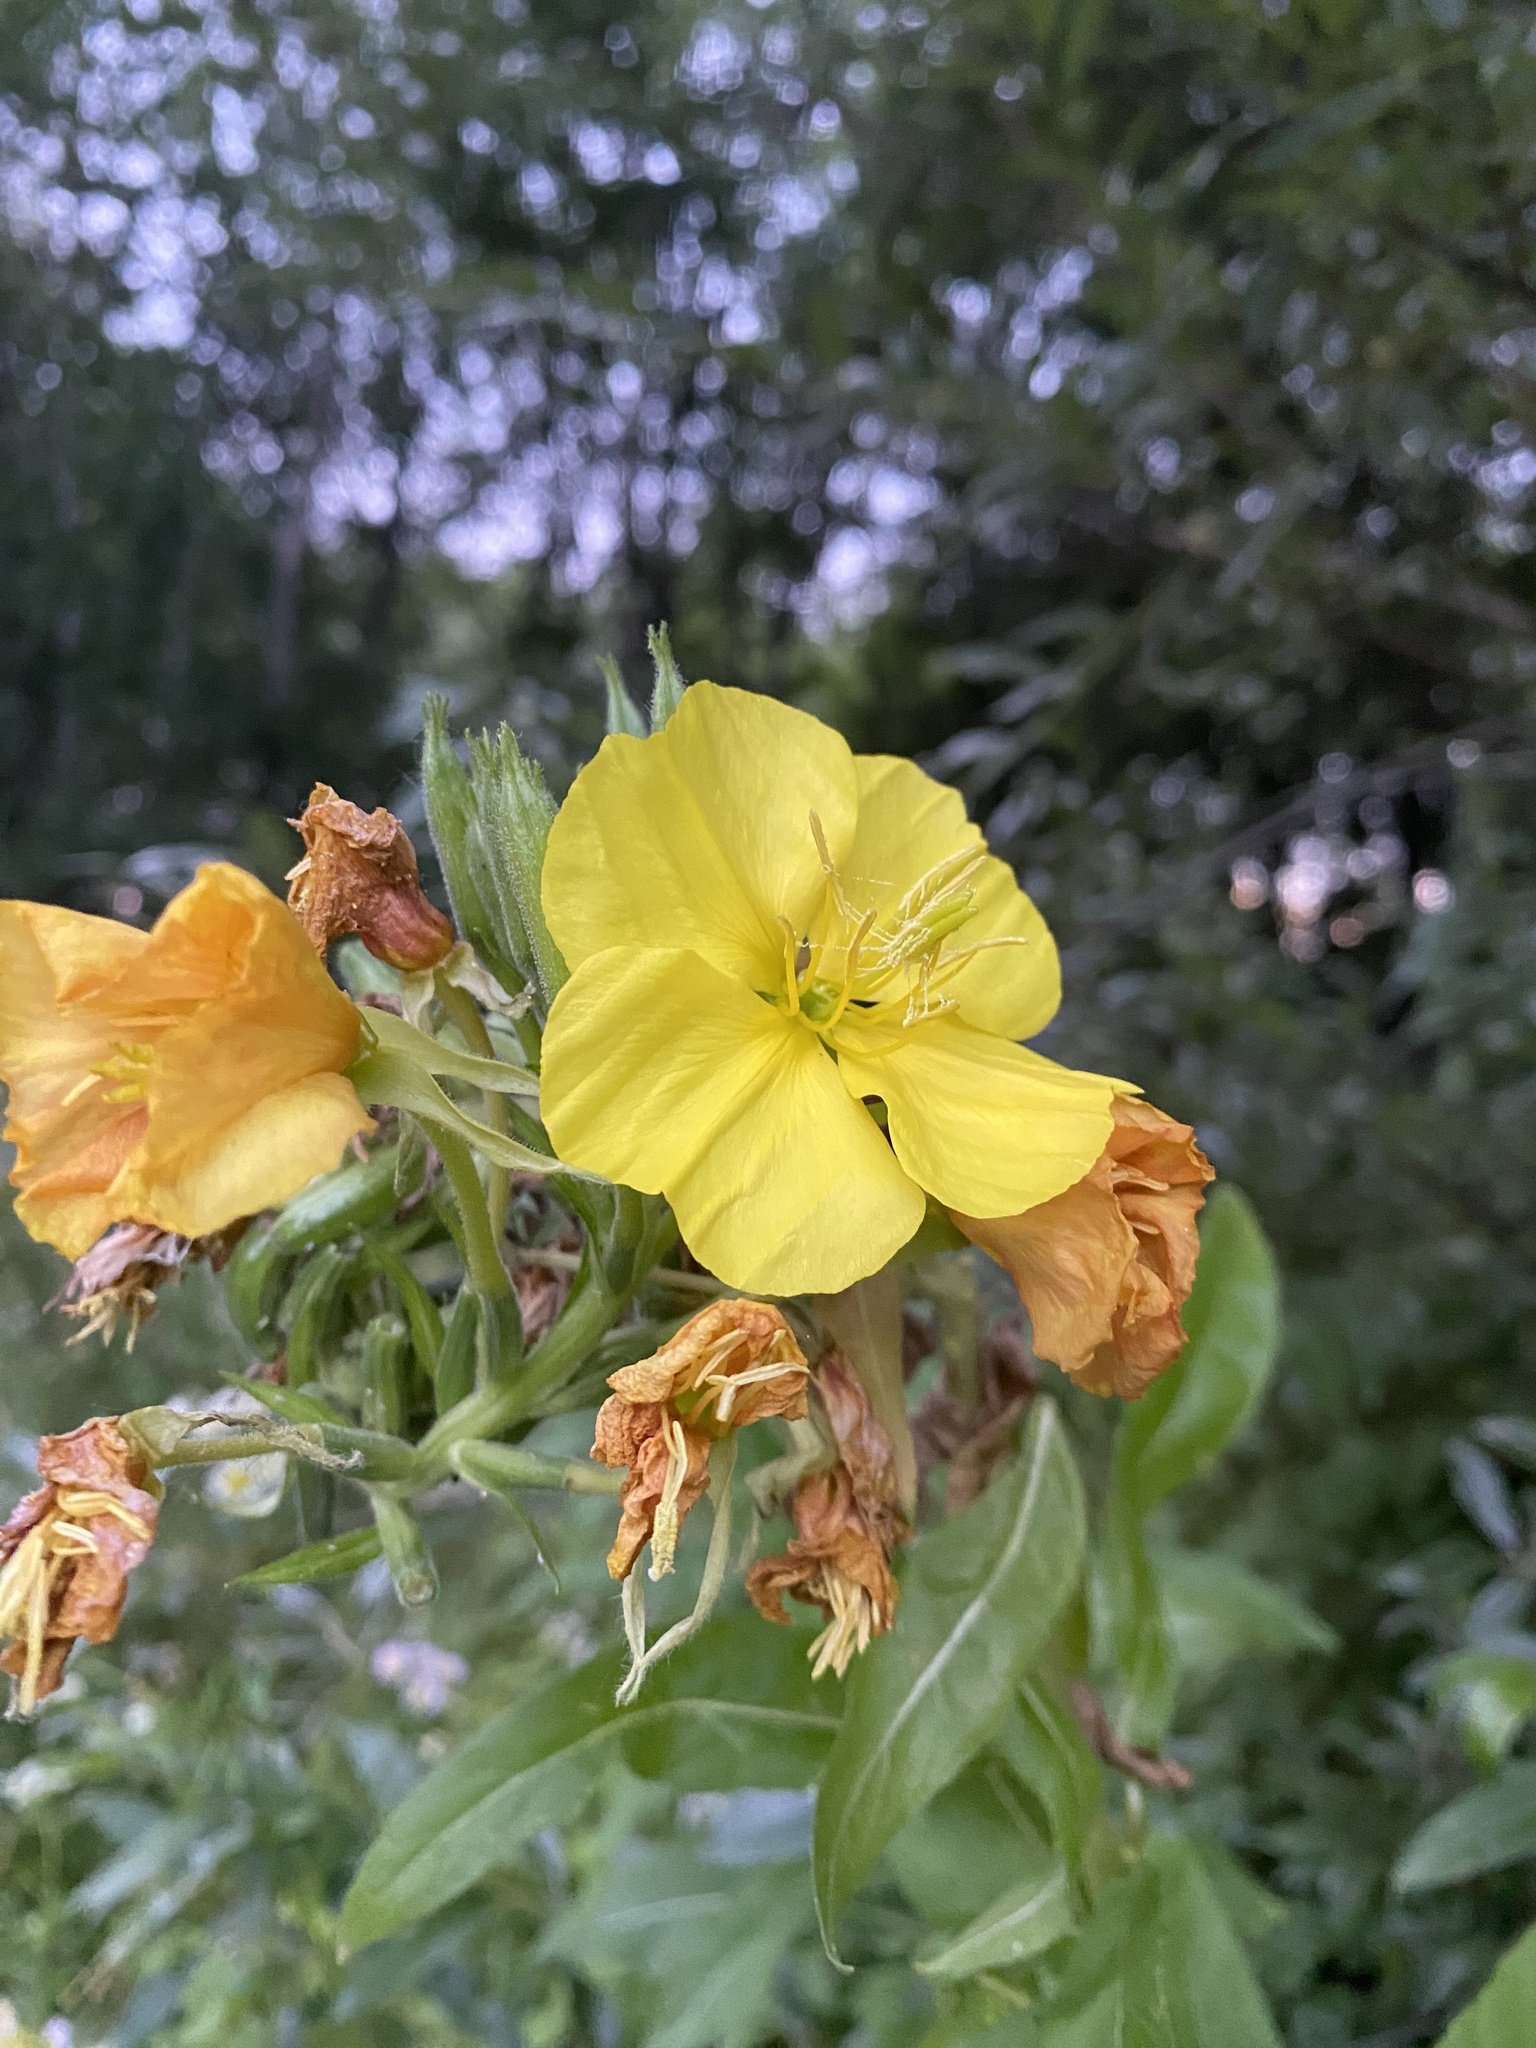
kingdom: Plantae
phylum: Tracheophyta
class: Magnoliopsida
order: Myrtales
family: Onagraceae
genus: Oenothera
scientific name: Oenothera biennis
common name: Common evening-primrose
